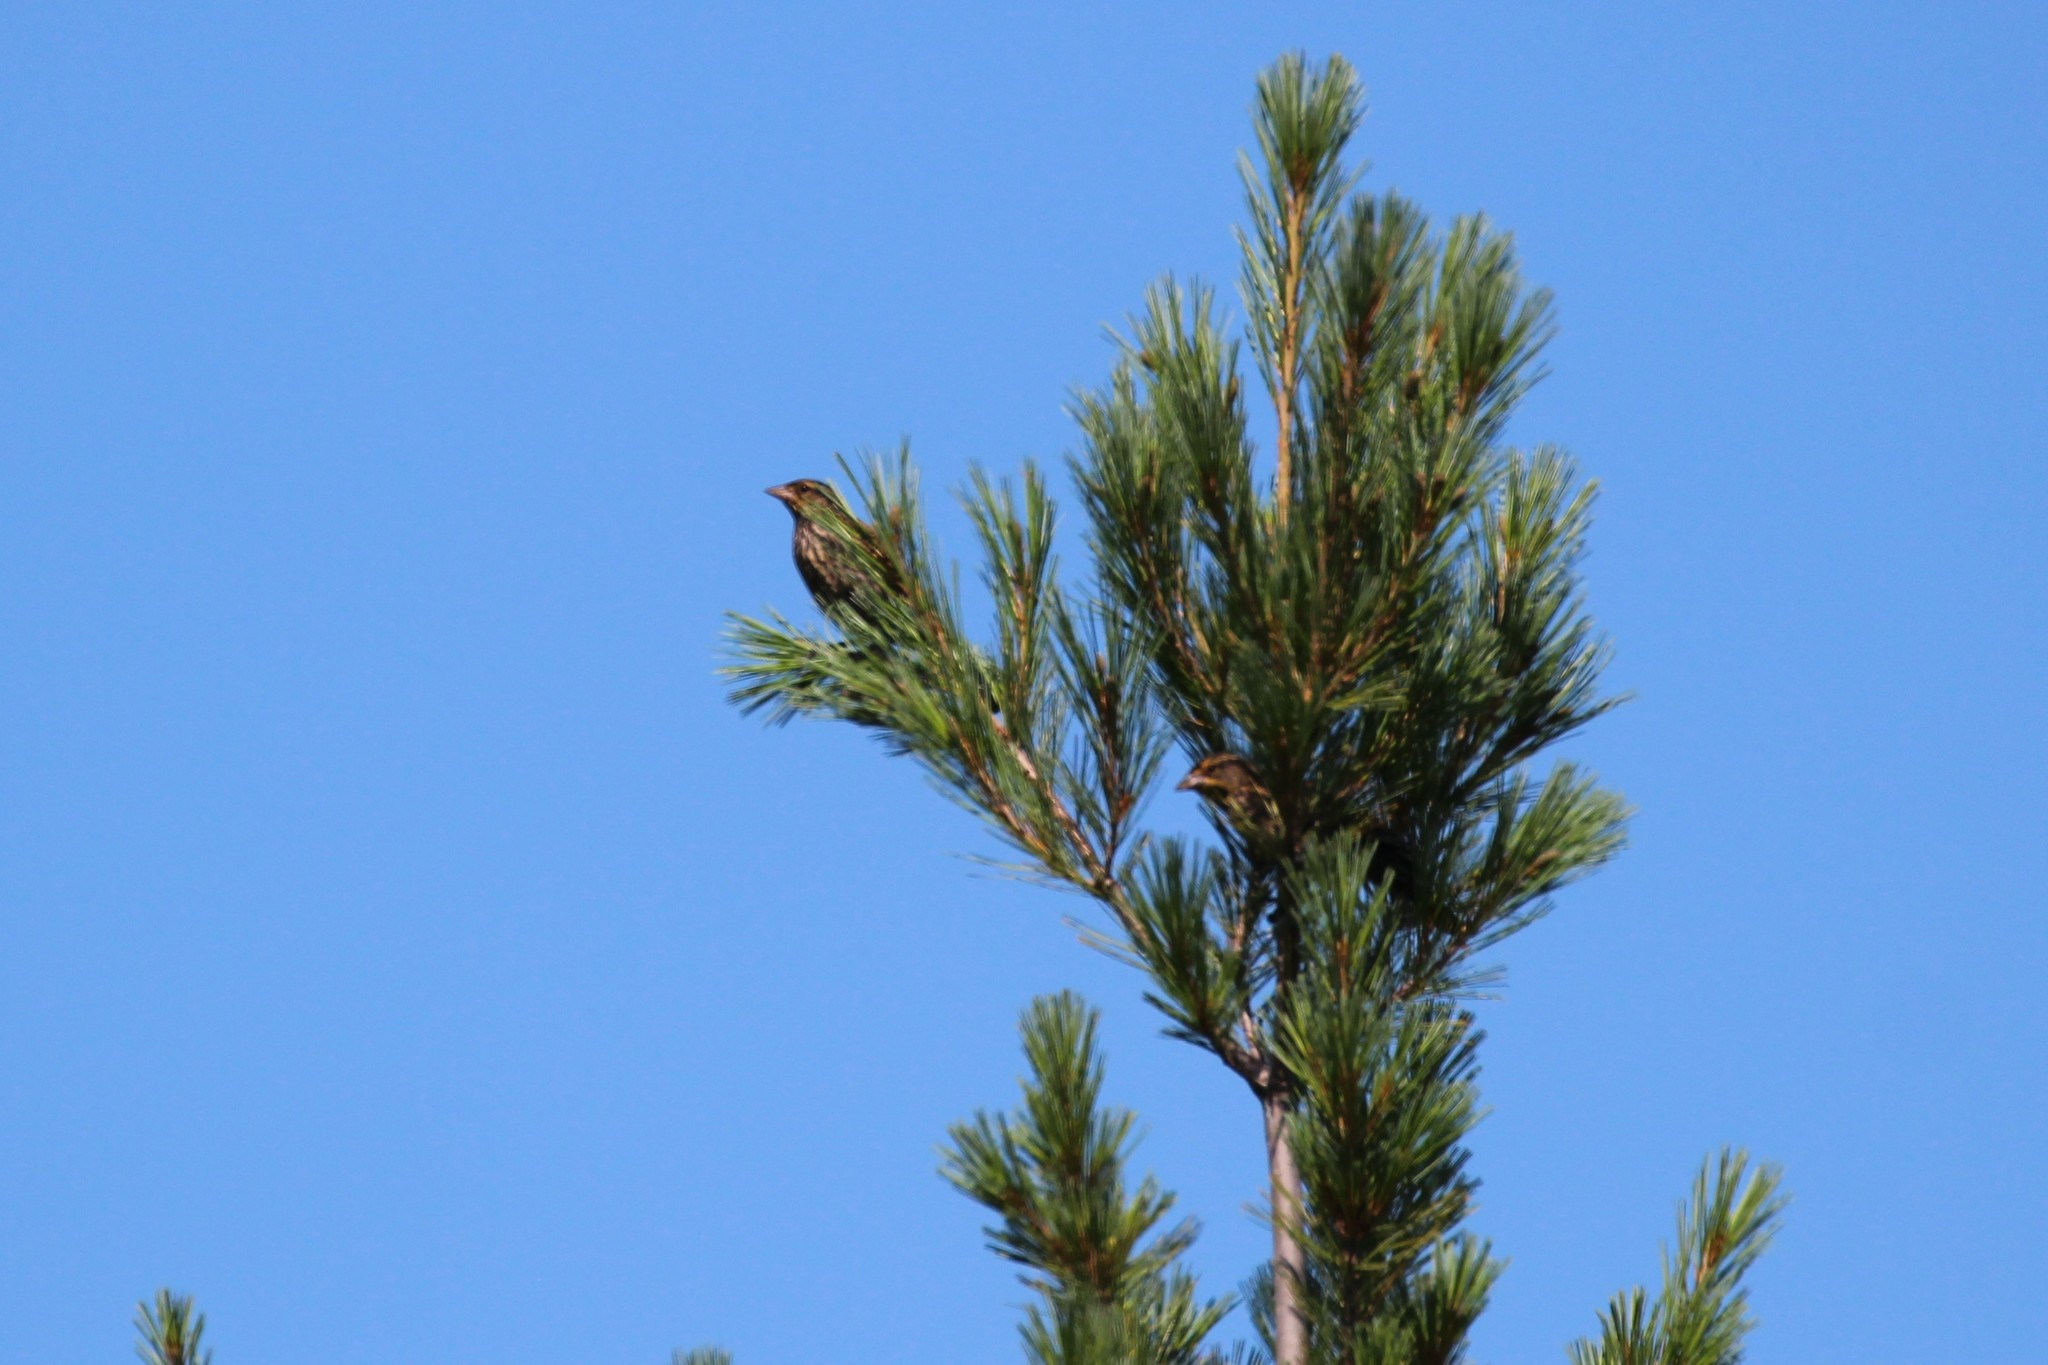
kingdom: Animalia
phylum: Chordata
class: Aves
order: Passeriformes
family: Icteridae
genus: Agelaius
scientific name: Agelaius phoeniceus
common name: Red-winged blackbird
